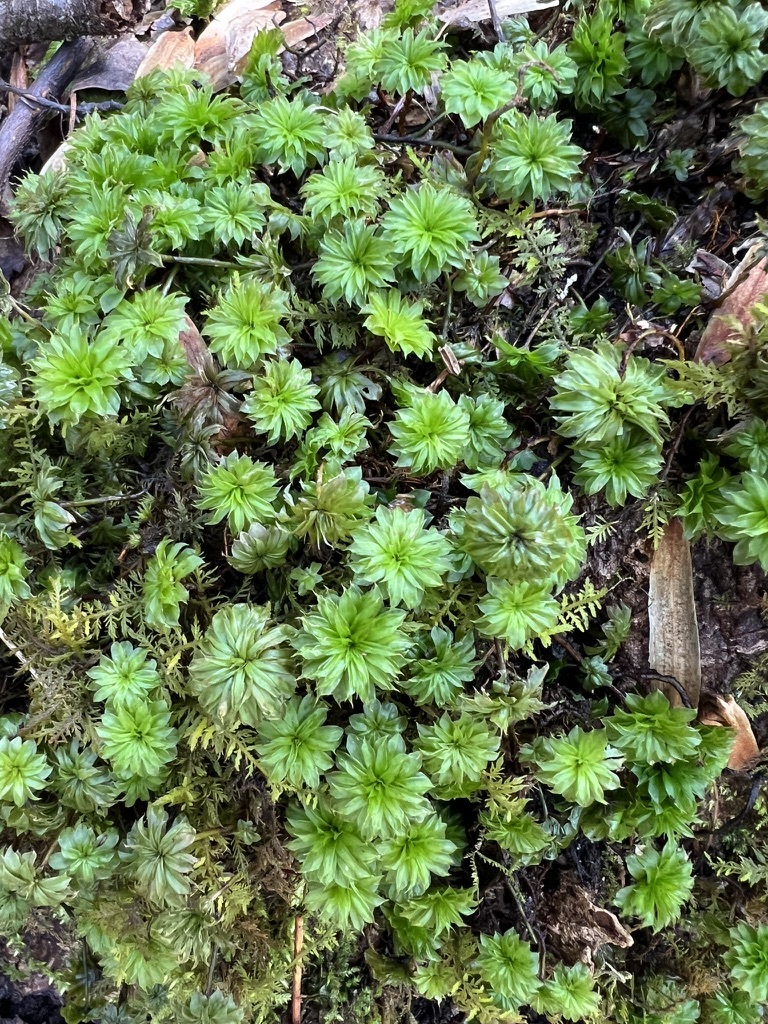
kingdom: Plantae
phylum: Bryophyta
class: Bryopsida
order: Bryales
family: Bryaceae
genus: Rhodobryum
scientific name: Rhodobryum ontariense
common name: Ontario rhodobryum moss
